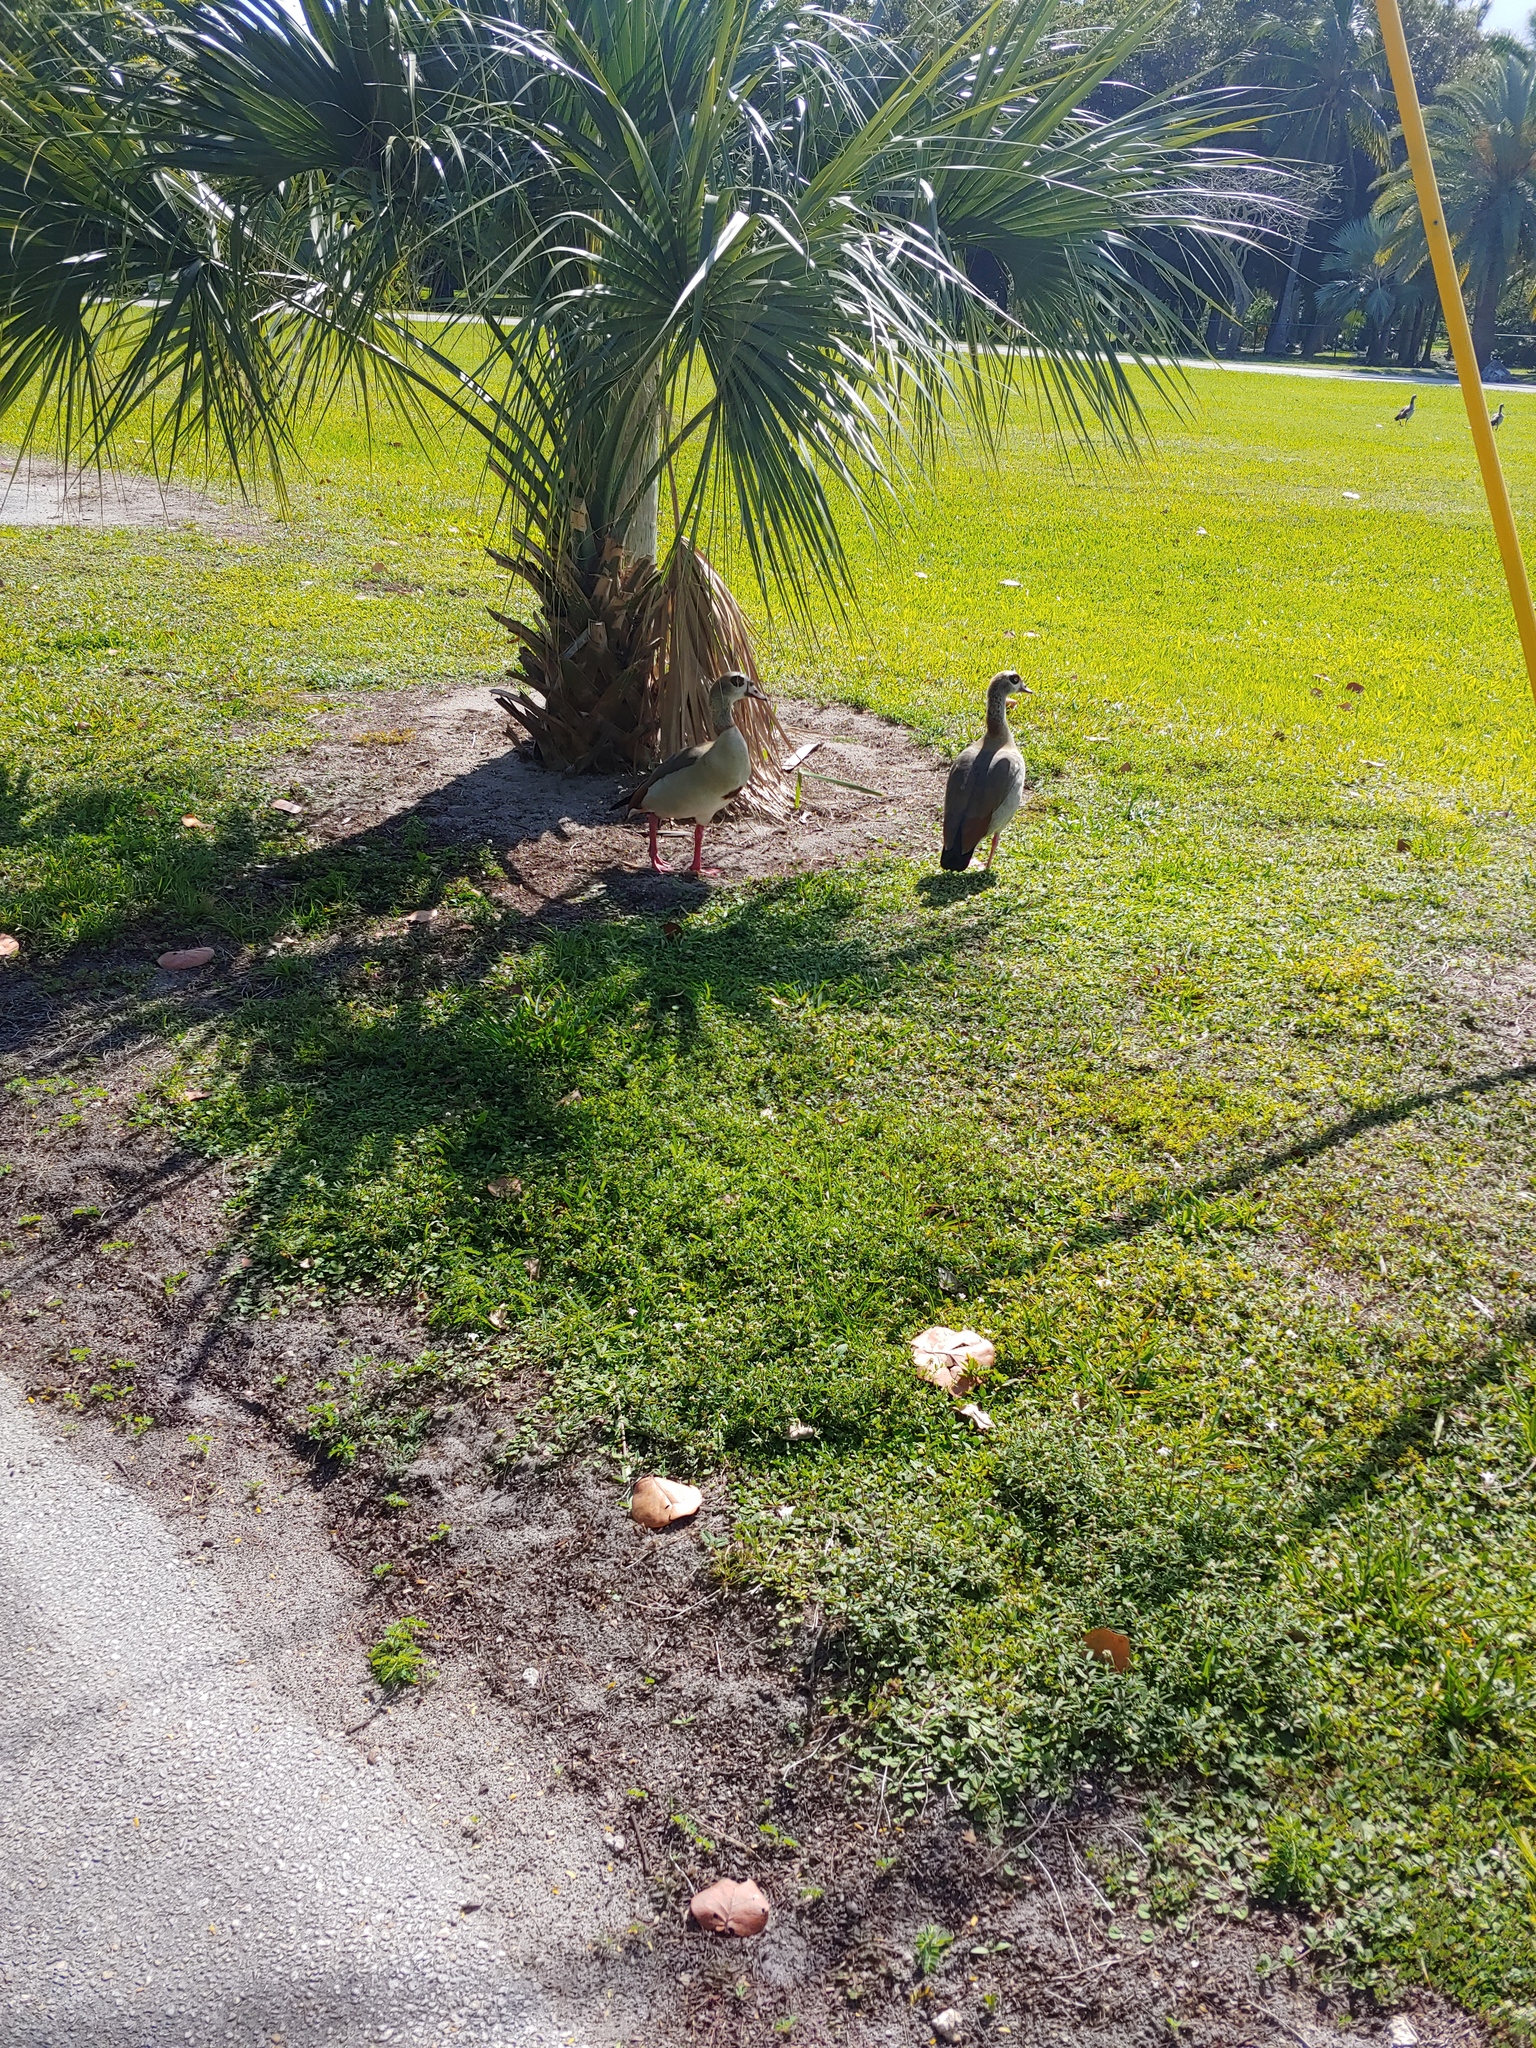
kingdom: Animalia
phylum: Chordata
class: Aves
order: Anseriformes
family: Anatidae
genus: Alopochen
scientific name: Alopochen aegyptiaca
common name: Egyptian goose
